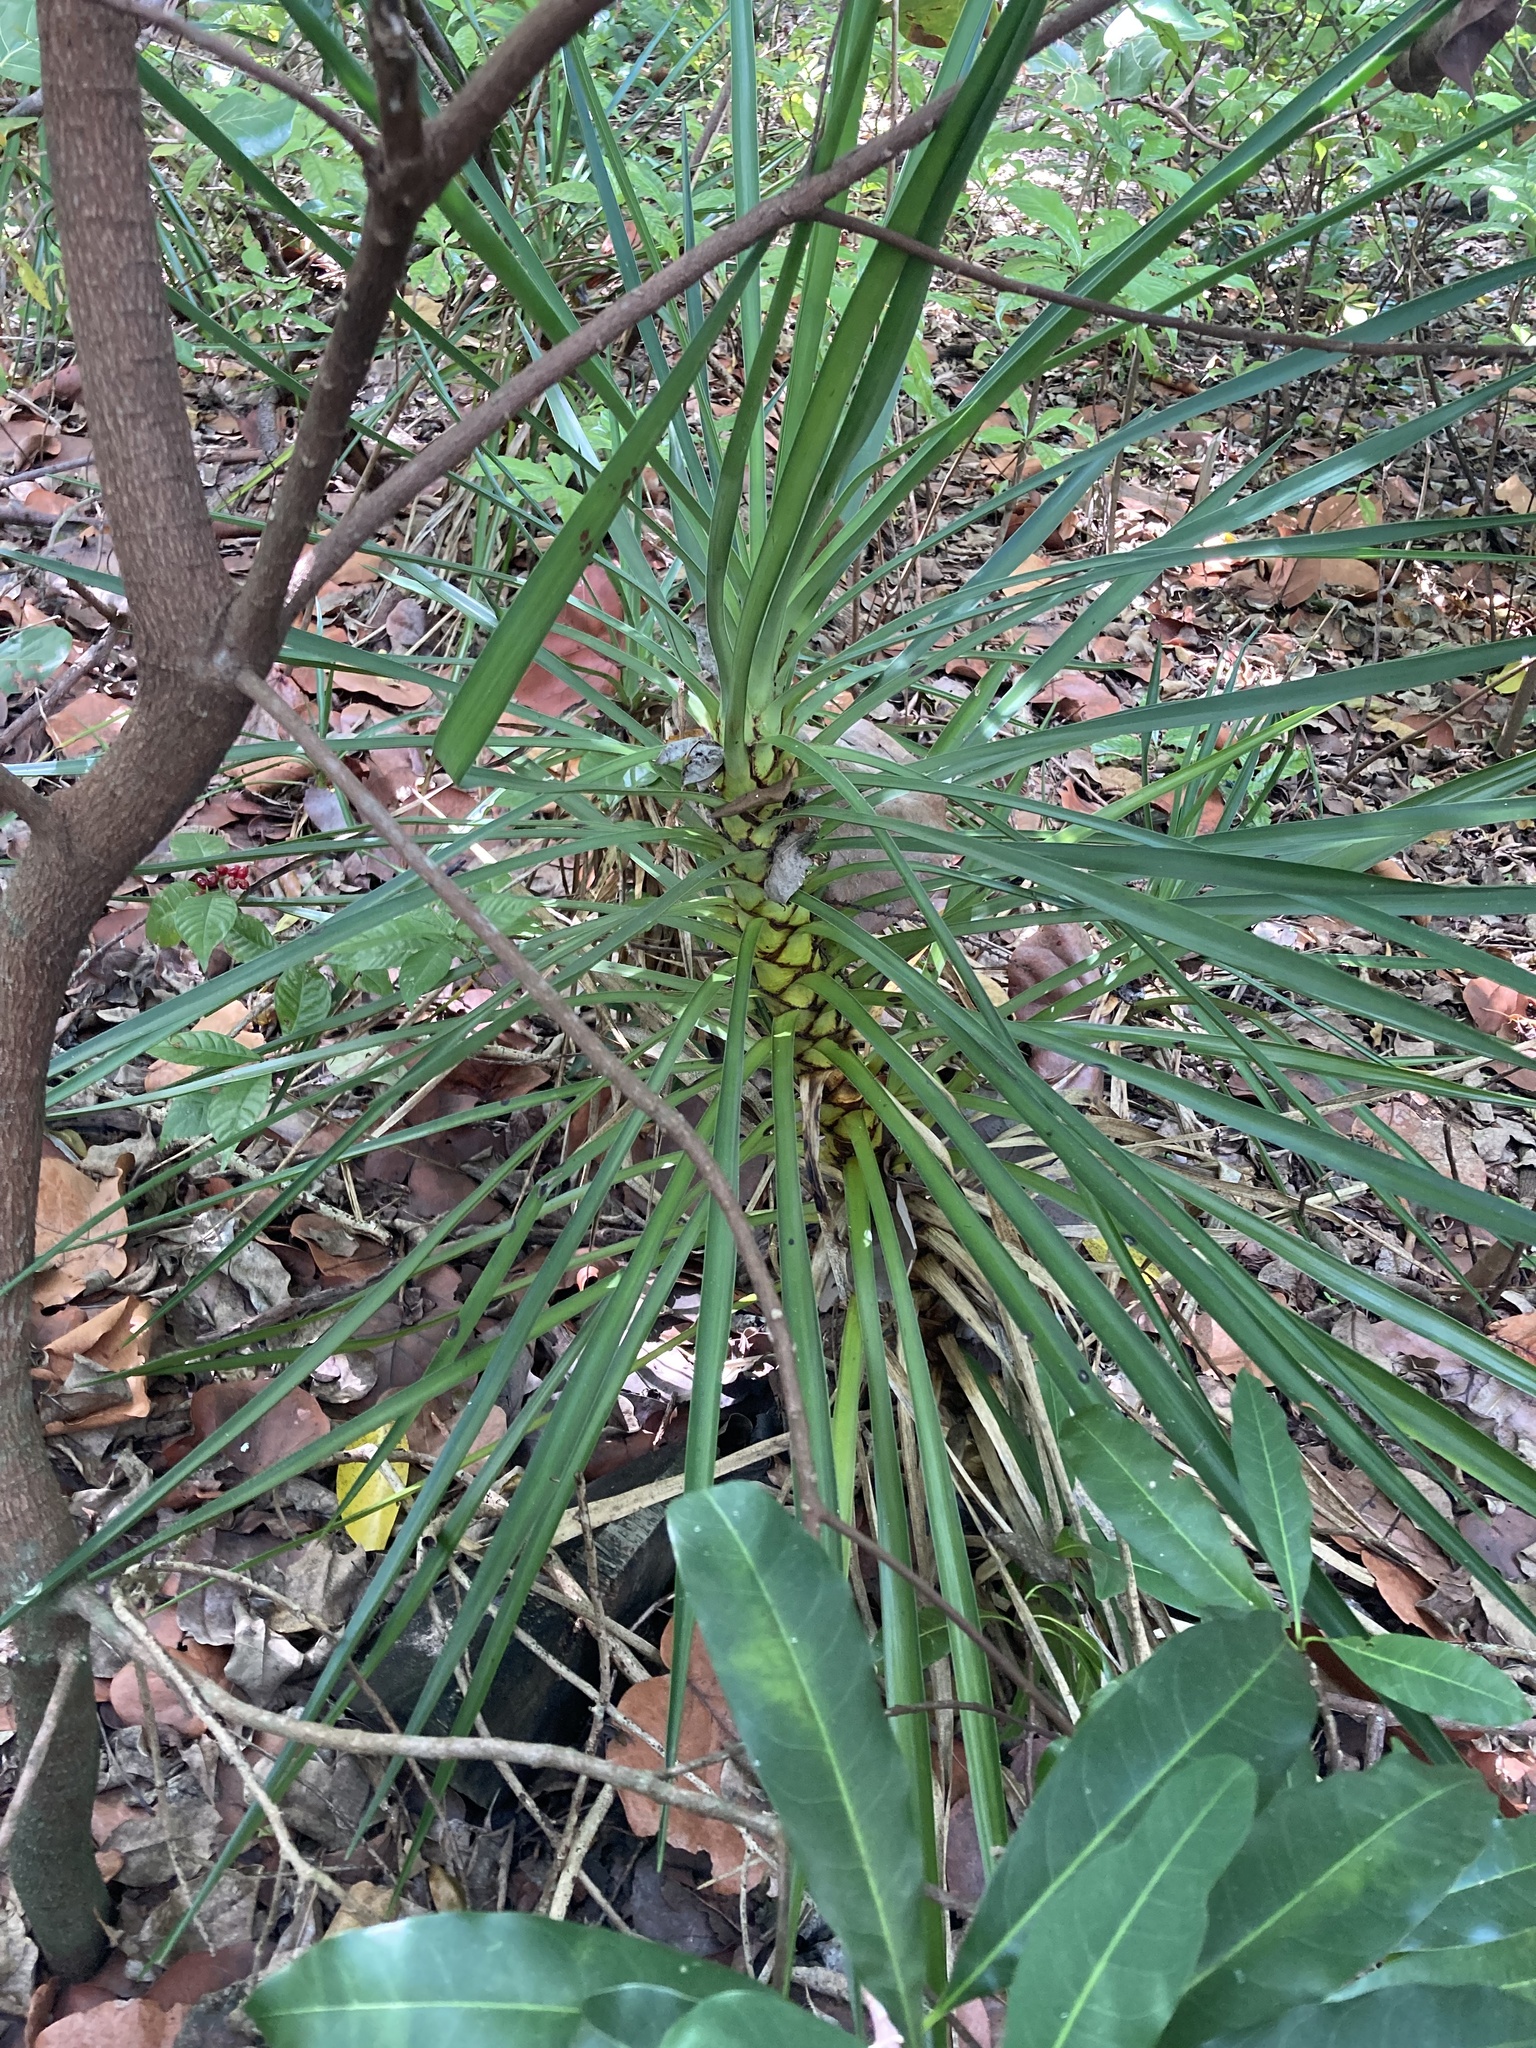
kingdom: Plantae
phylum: Tracheophyta
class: Liliopsida
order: Asparagales
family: Asparagaceae
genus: Yucca
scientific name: Yucca aloifolia
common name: Aloe yucca
